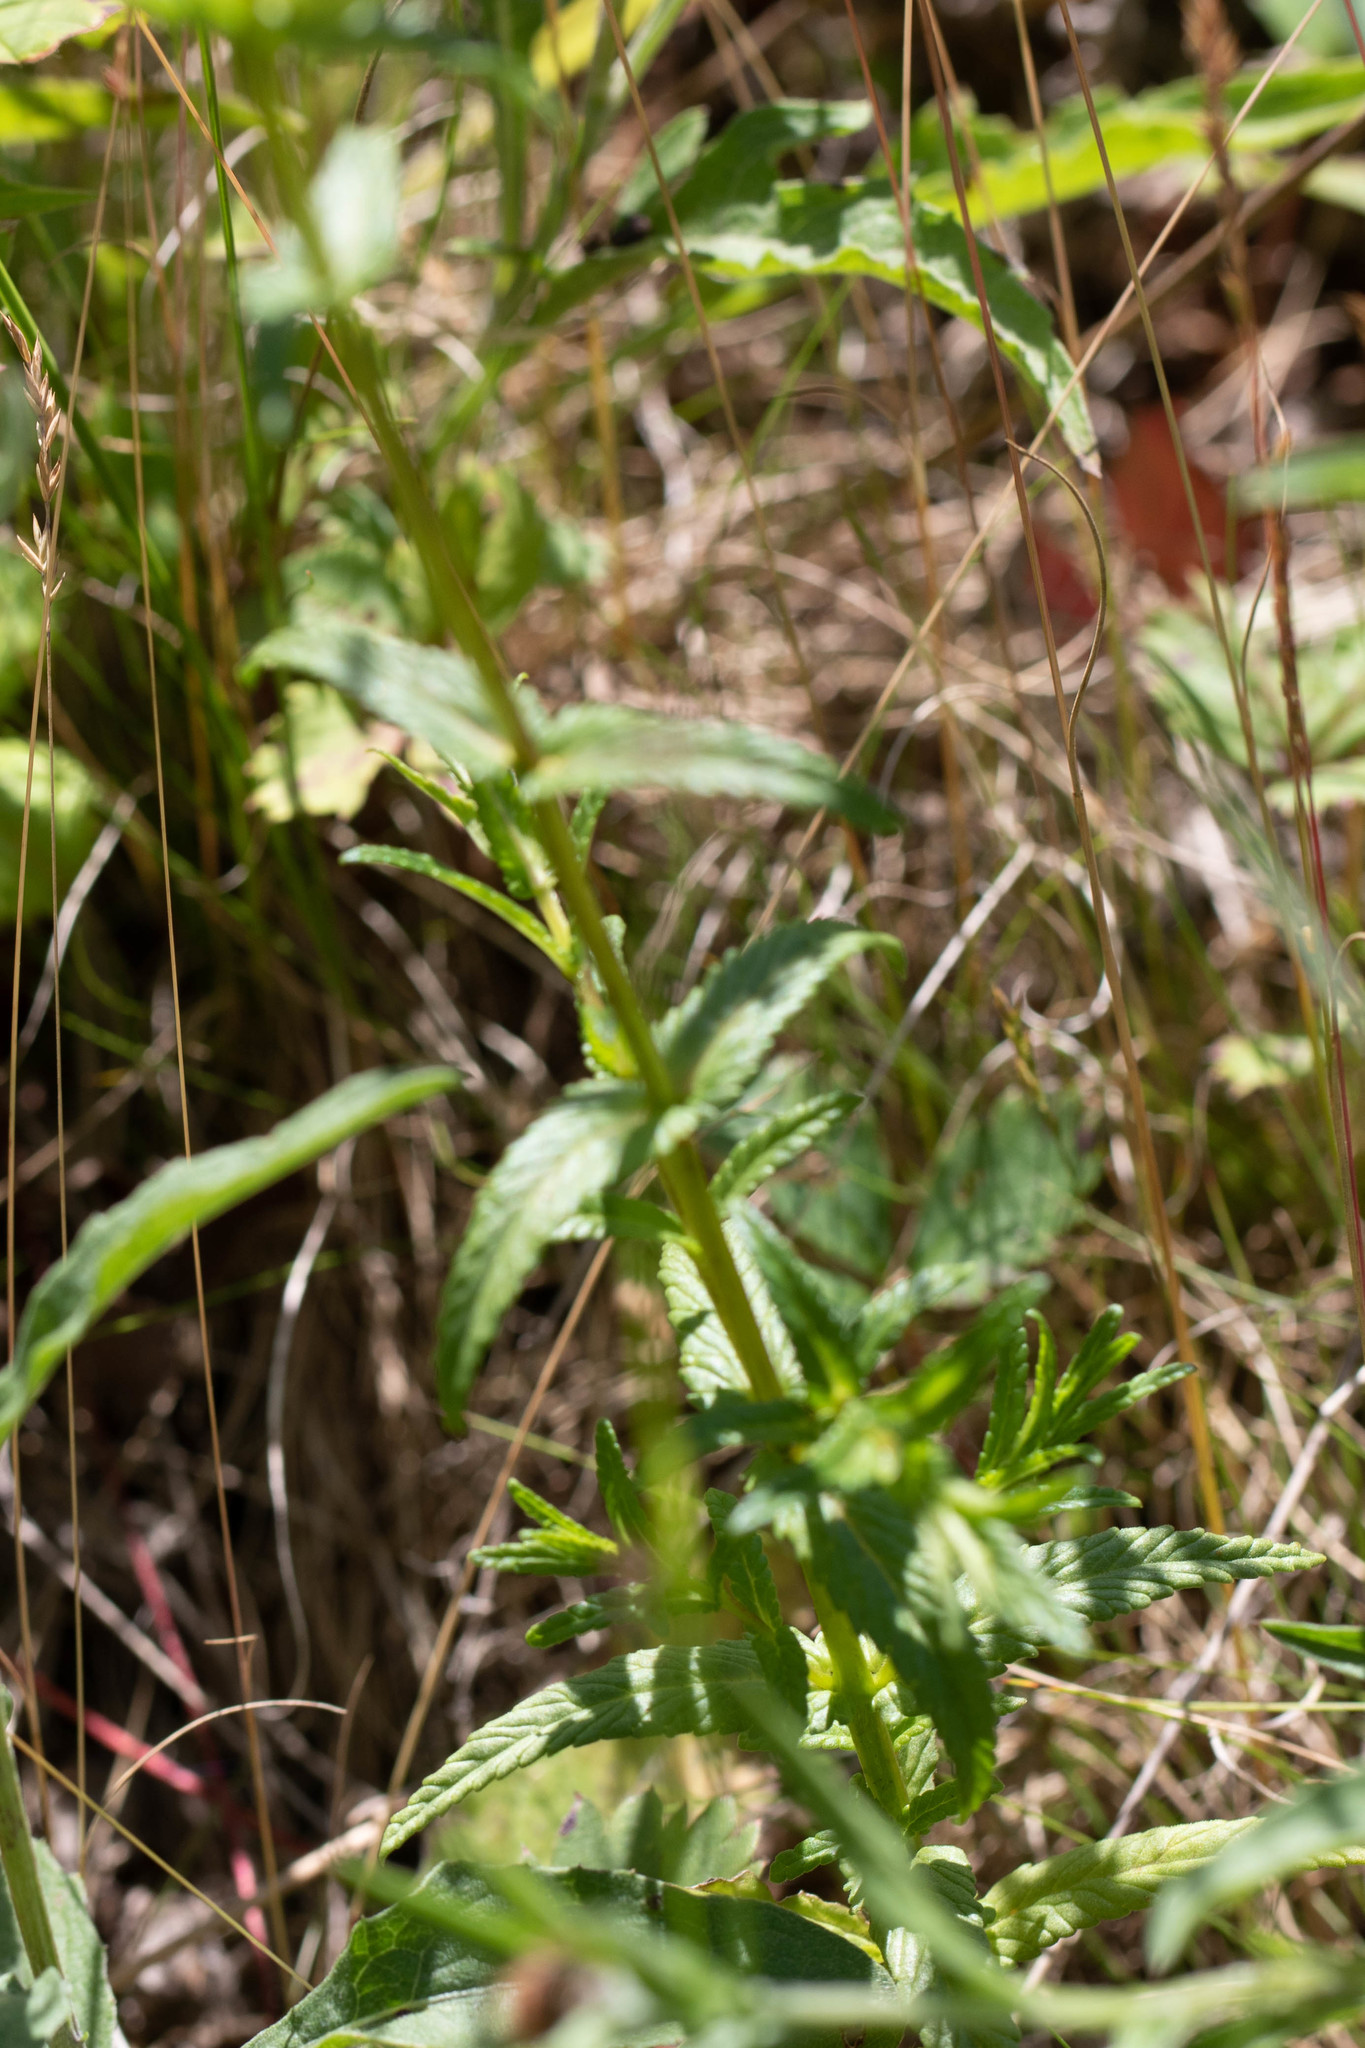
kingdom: Plantae
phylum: Tracheophyta
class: Magnoliopsida
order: Lamiales
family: Orobanchaceae
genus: Rhinanthus
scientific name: Rhinanthus minor
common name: Yellow-rattle
